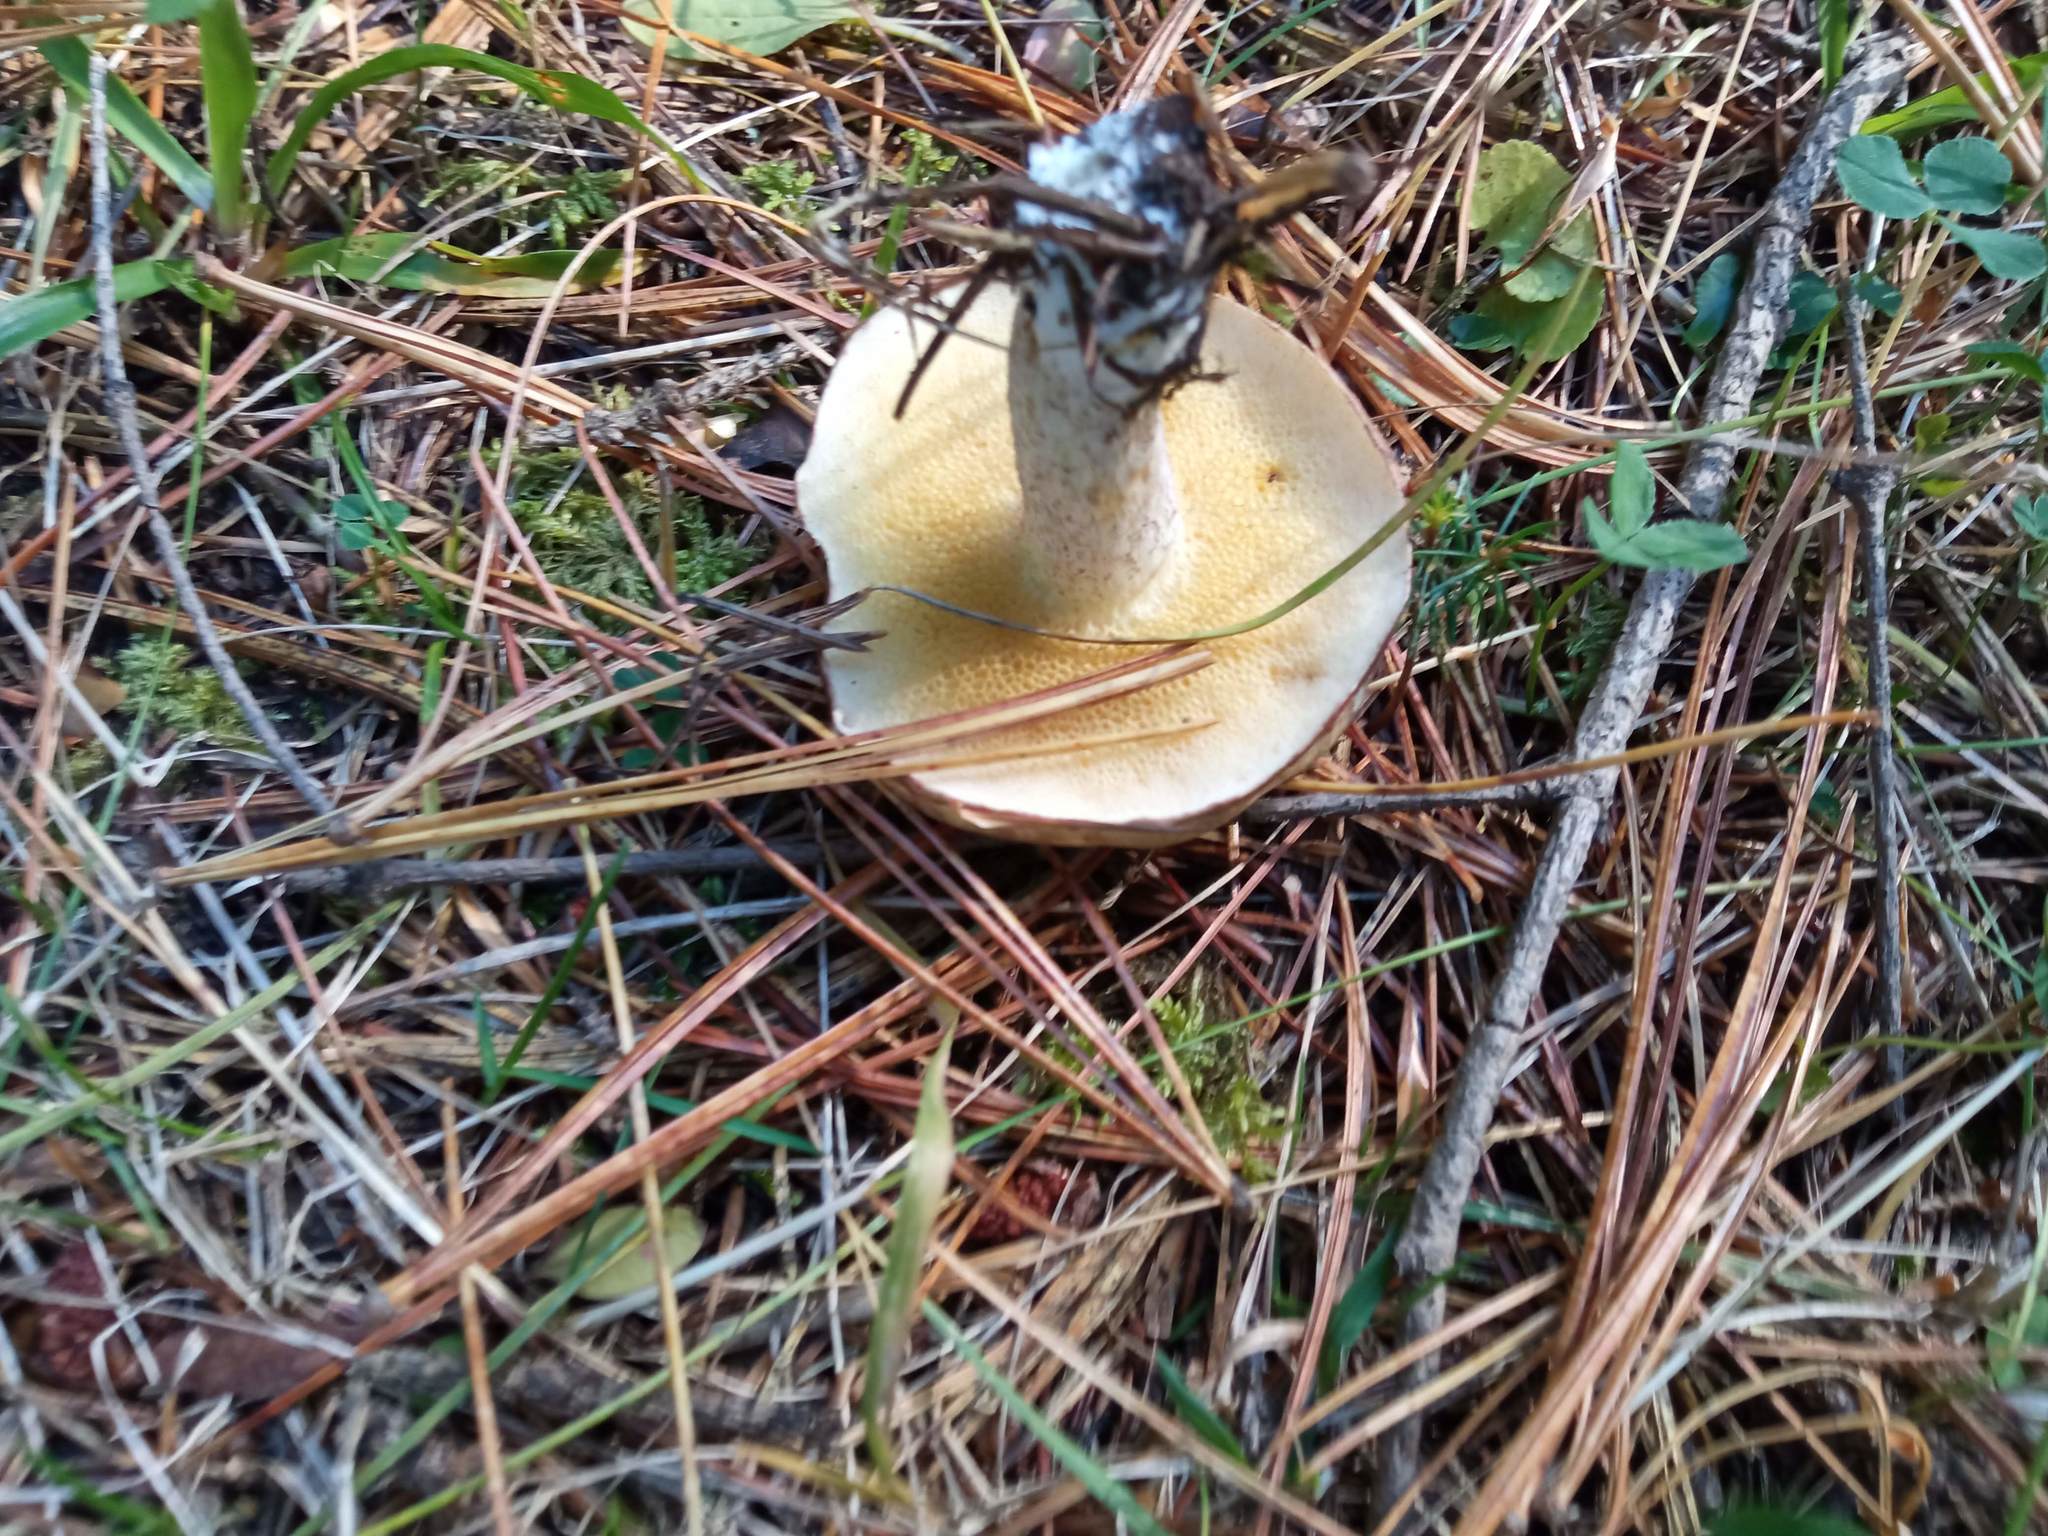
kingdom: Fungi
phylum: Basidiomycota
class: Agaricomycetes
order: Boletales
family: Suillaceae
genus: Suillus
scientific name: Suillus luteus
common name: Slippery jack
